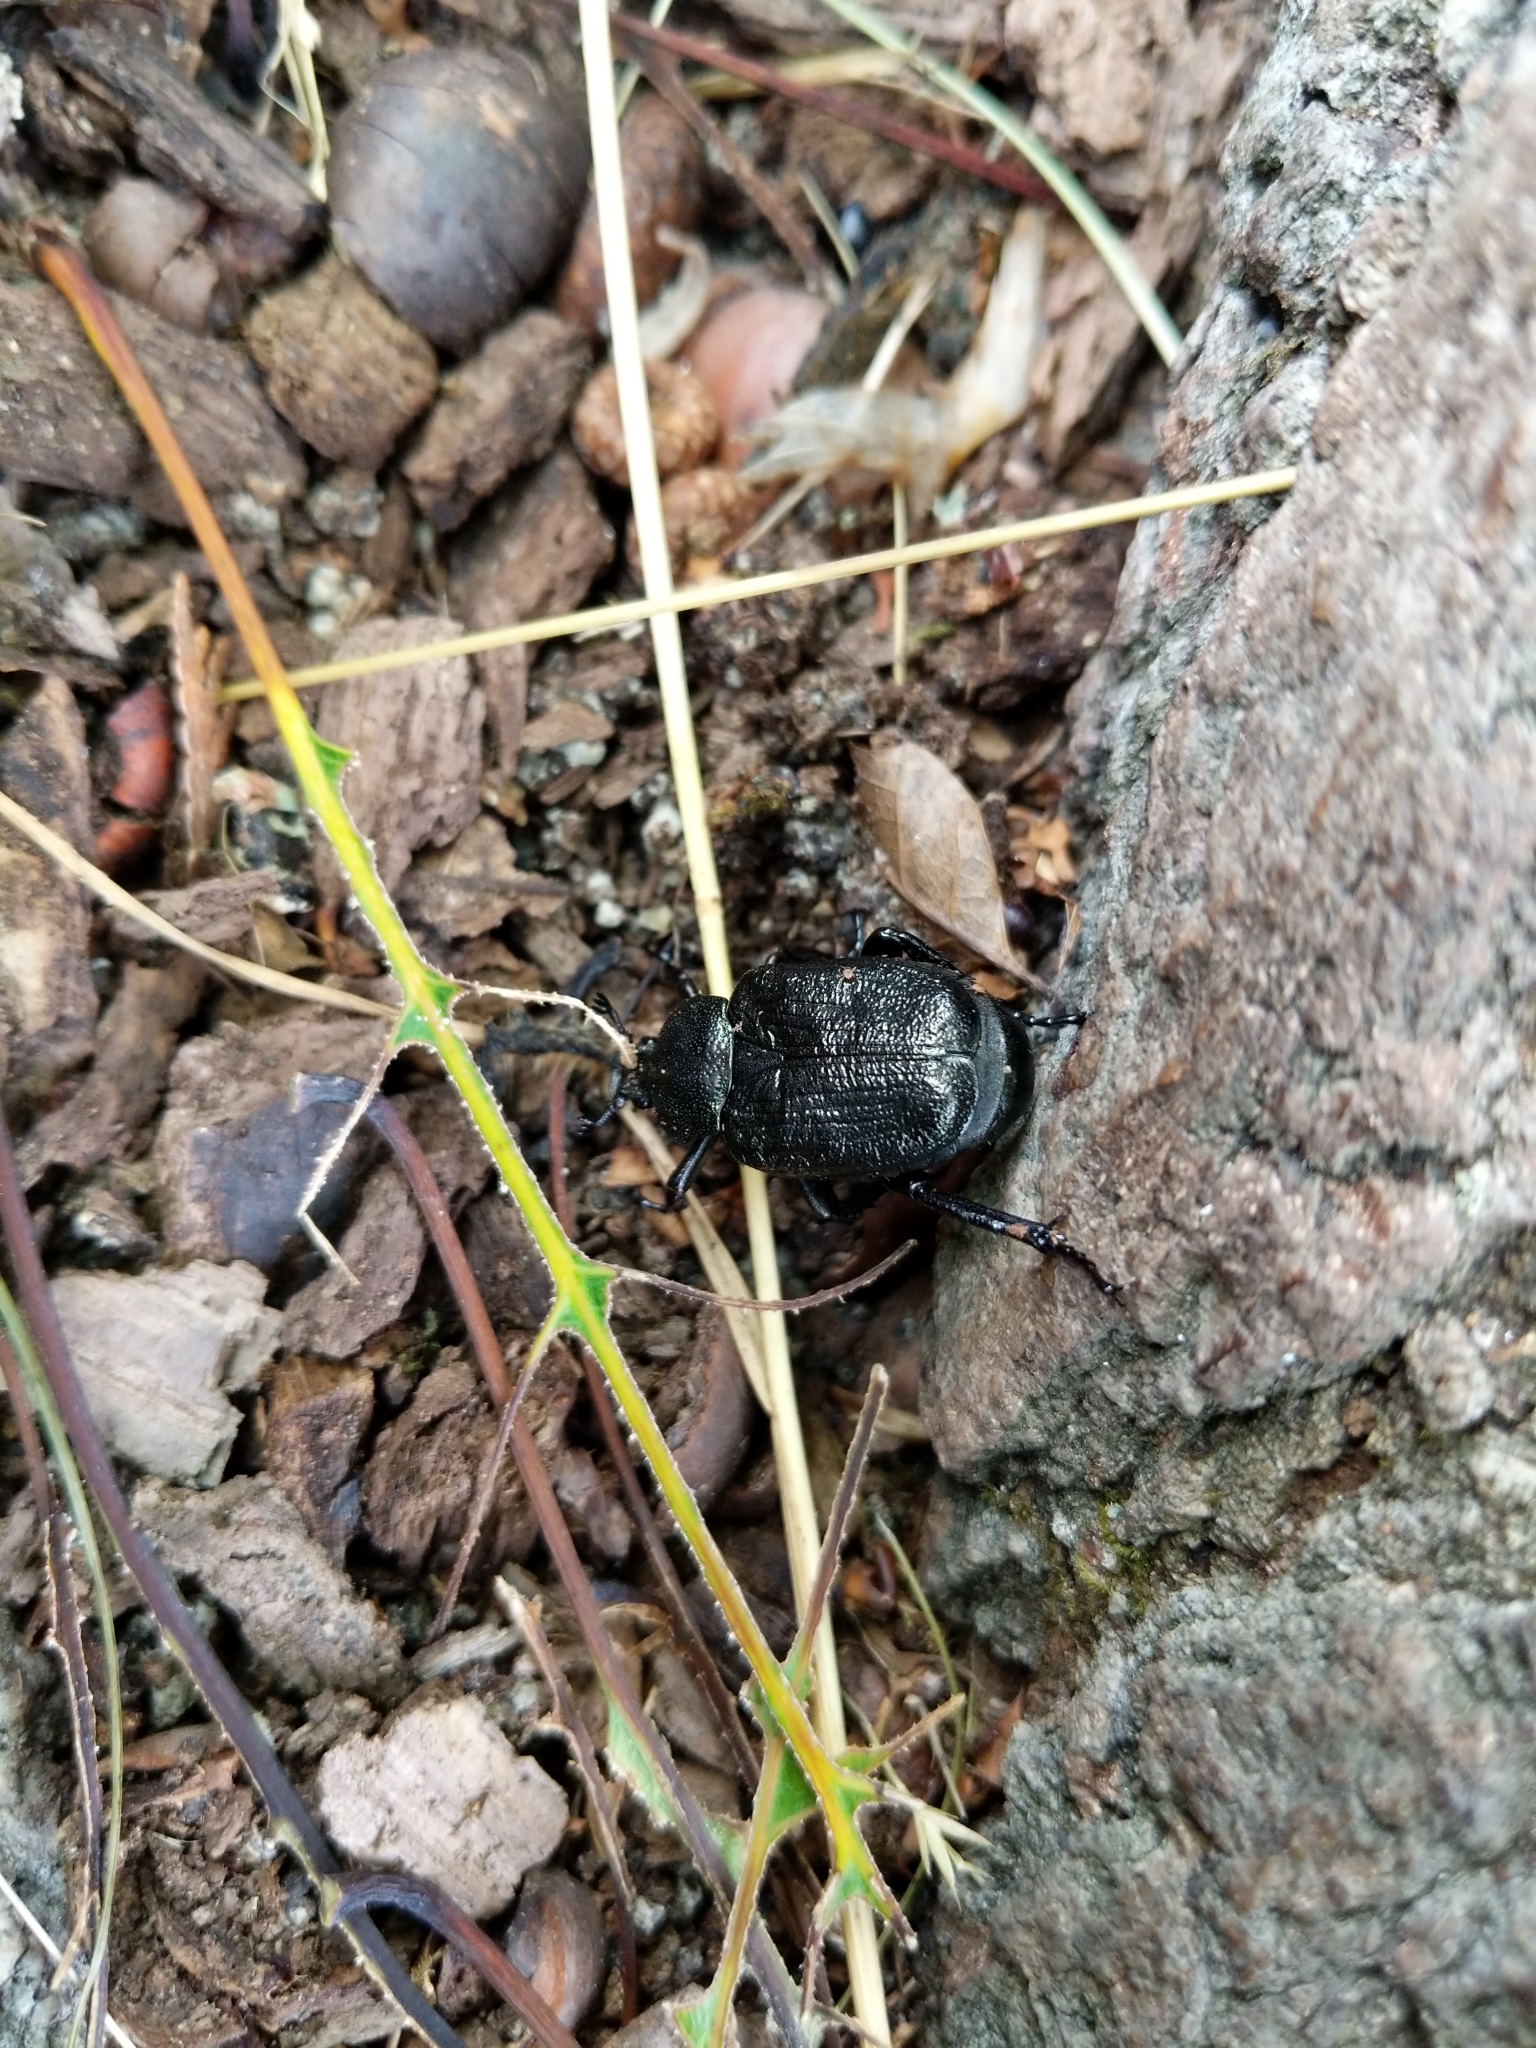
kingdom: Animalia
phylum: Arthropoda
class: Insecta
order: Coleoptera
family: Scarabaeidae
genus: Osmoderma
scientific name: Osmoderma scabra
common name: Rough hermit beetle
